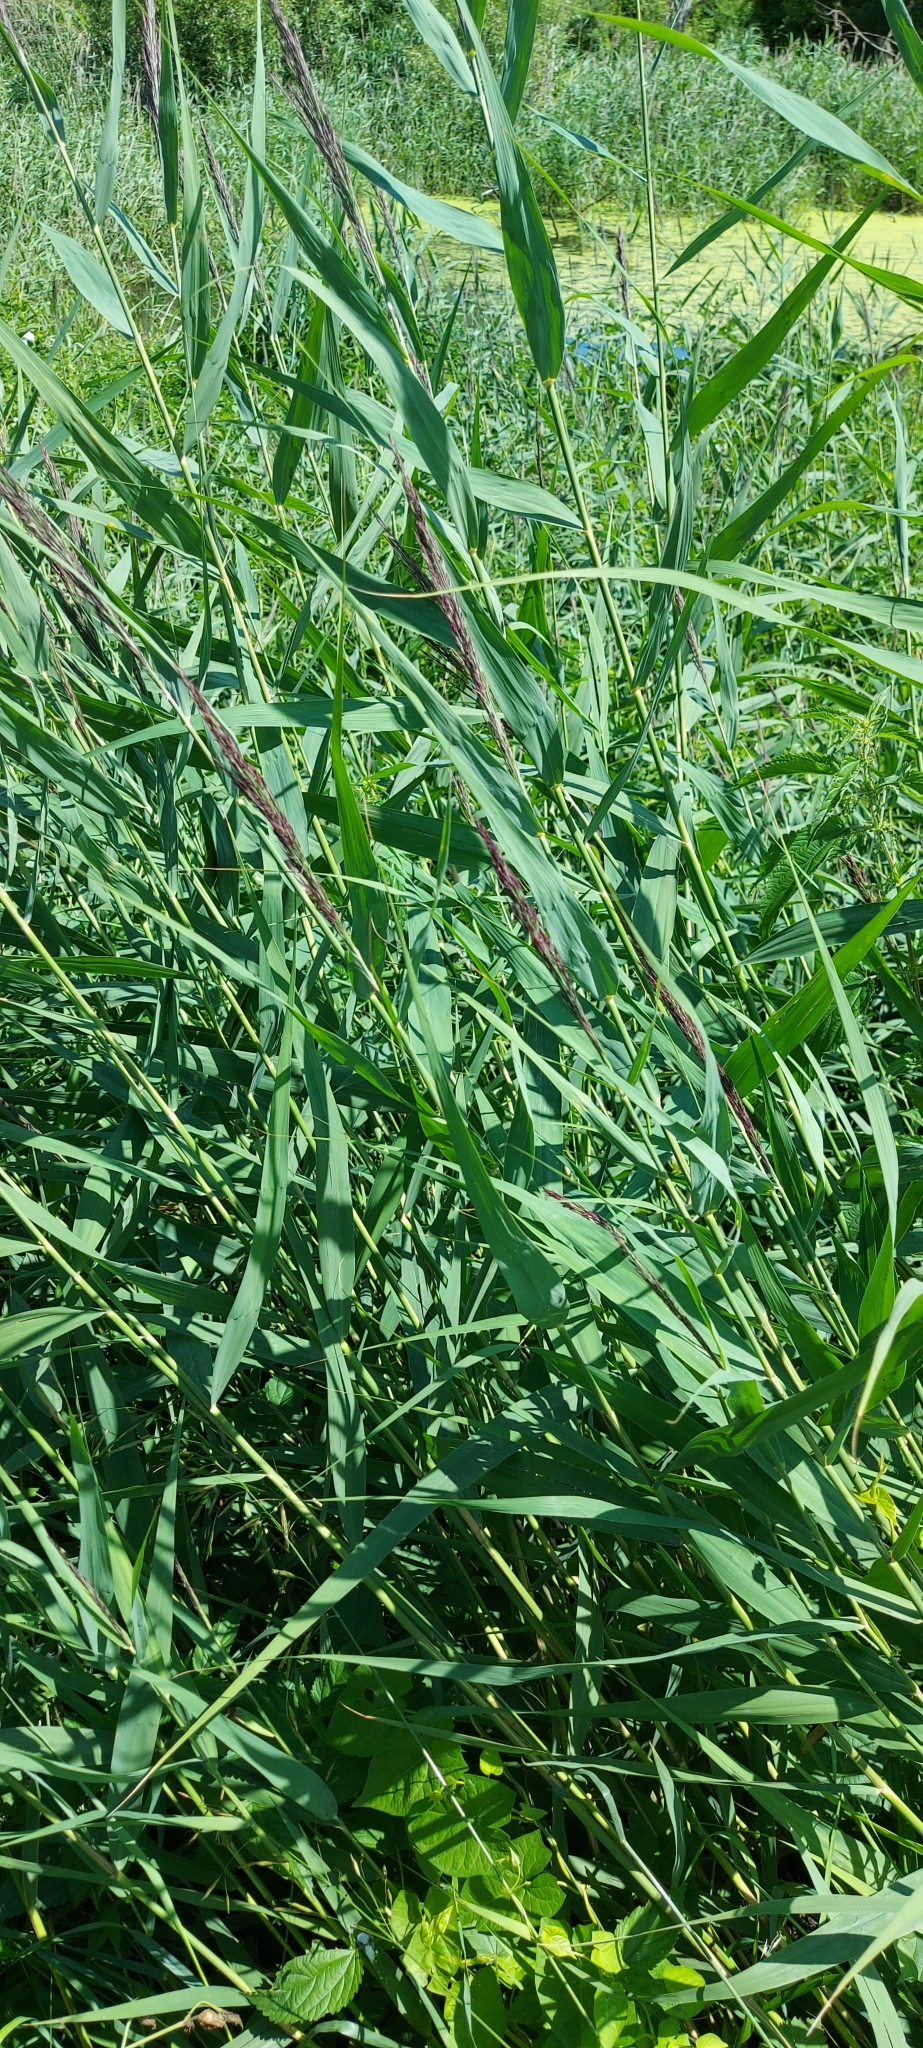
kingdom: Plantae
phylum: Tracheophyta
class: Liliopsida
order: Poales
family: Poaceae
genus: Phragmites
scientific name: Phragmites australis
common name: Common reed
